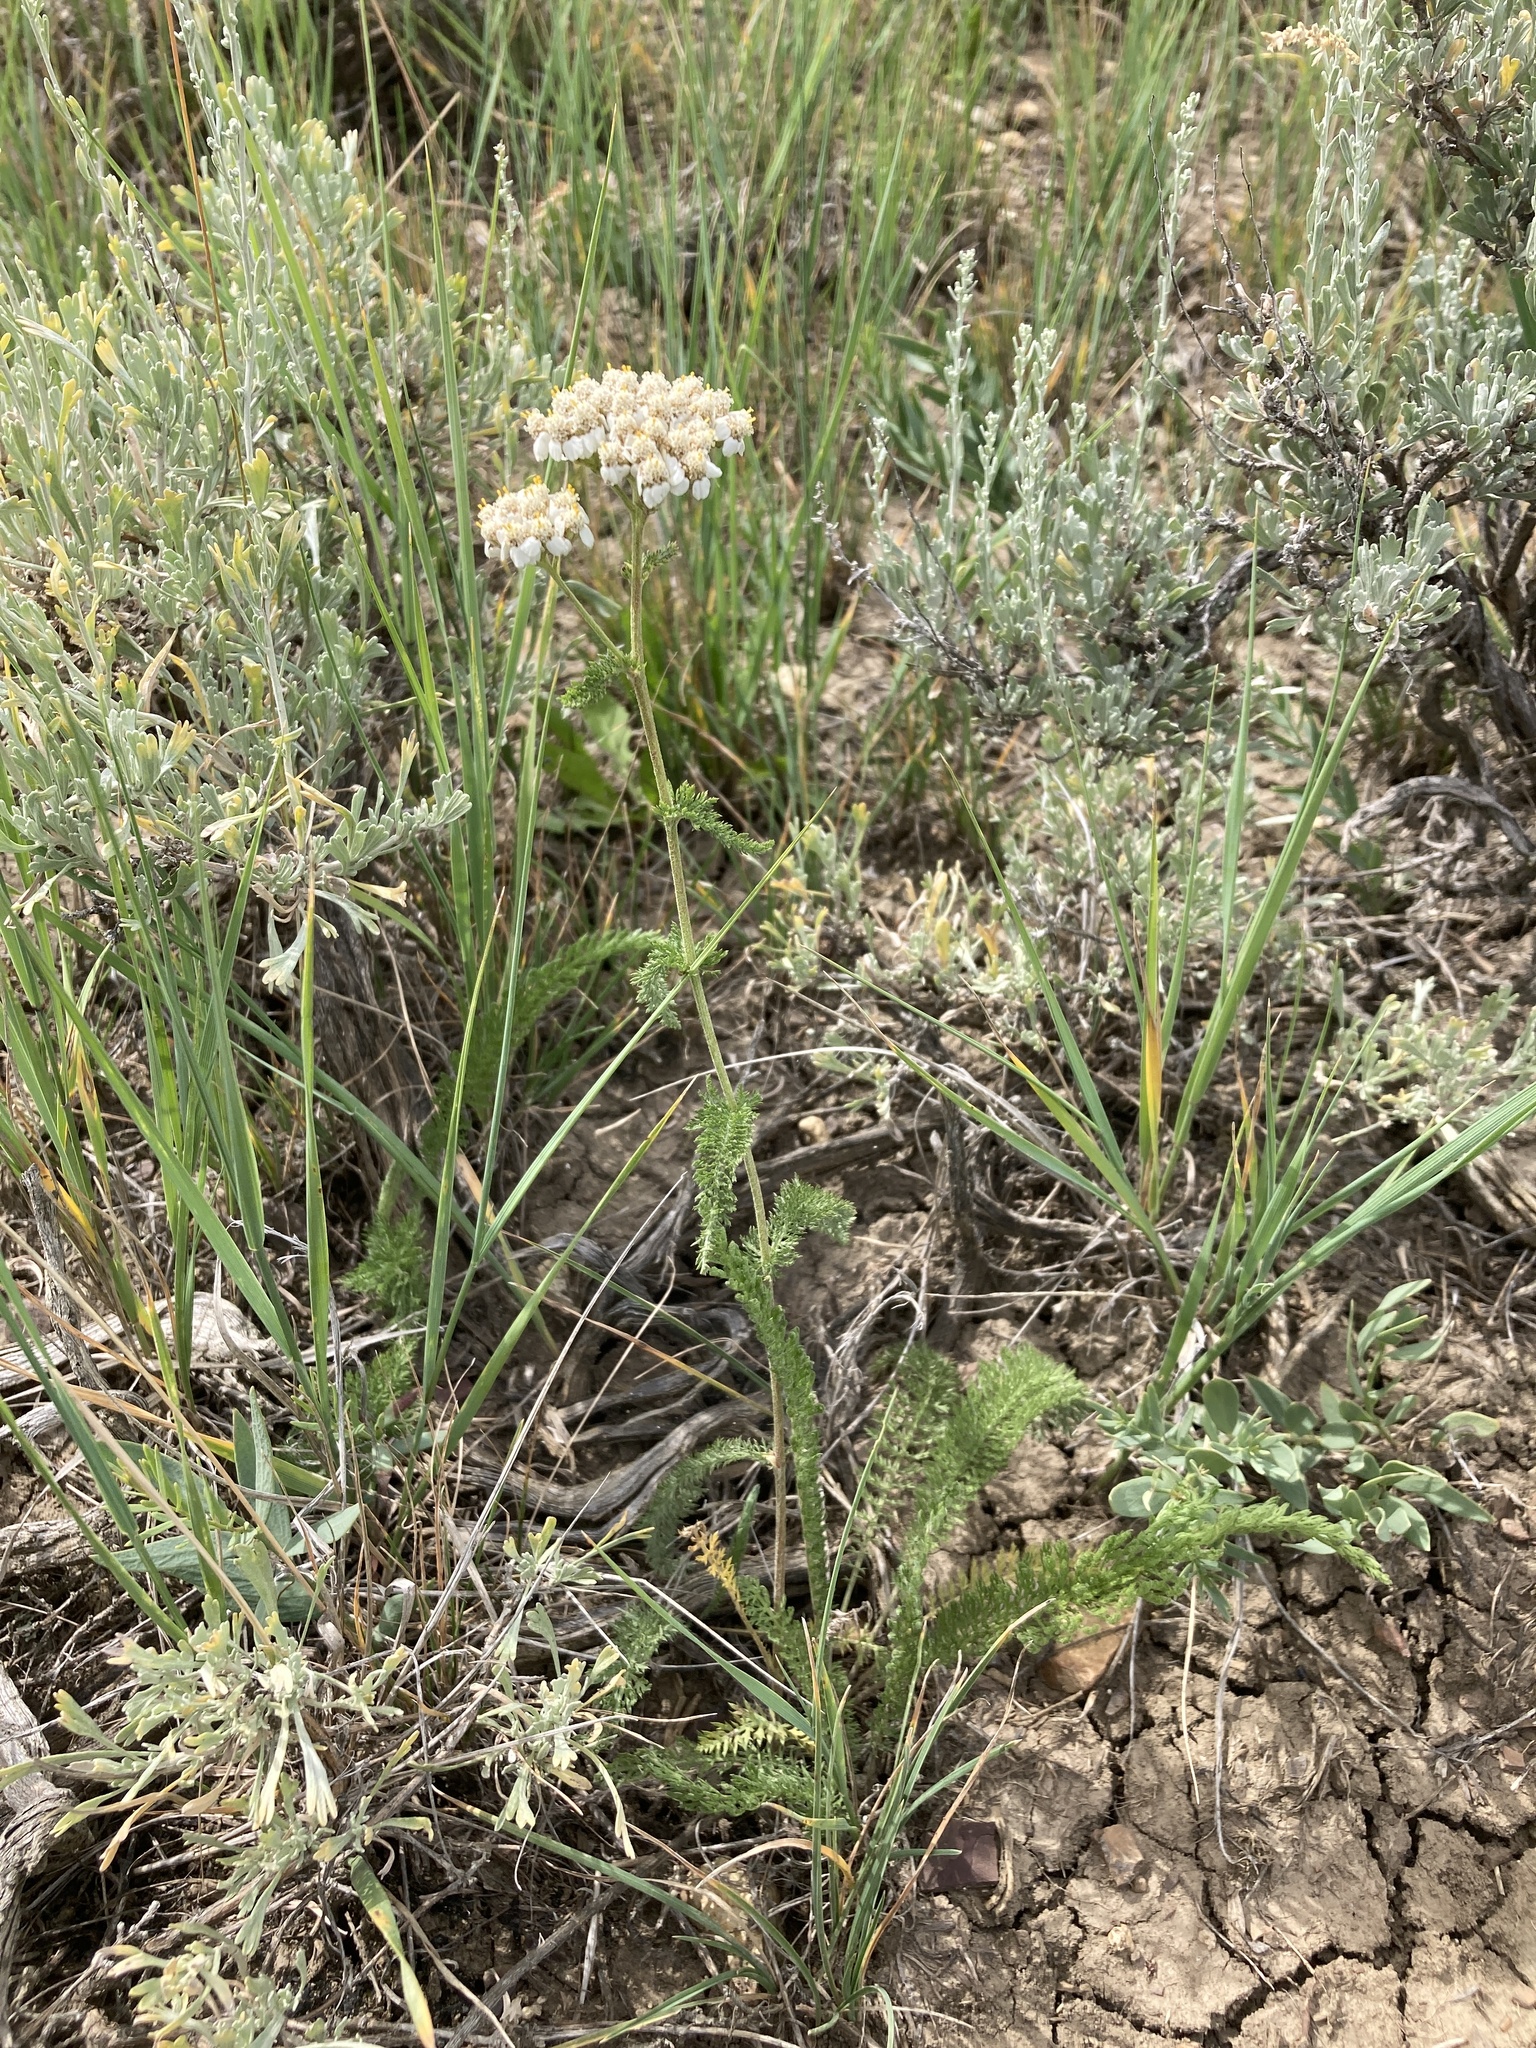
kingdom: Plantae
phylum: Tracheophyta
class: Magnoliopsida
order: Asterales
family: Asteraceae
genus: Achillea
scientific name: Achillea millefolium
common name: Yarrow
